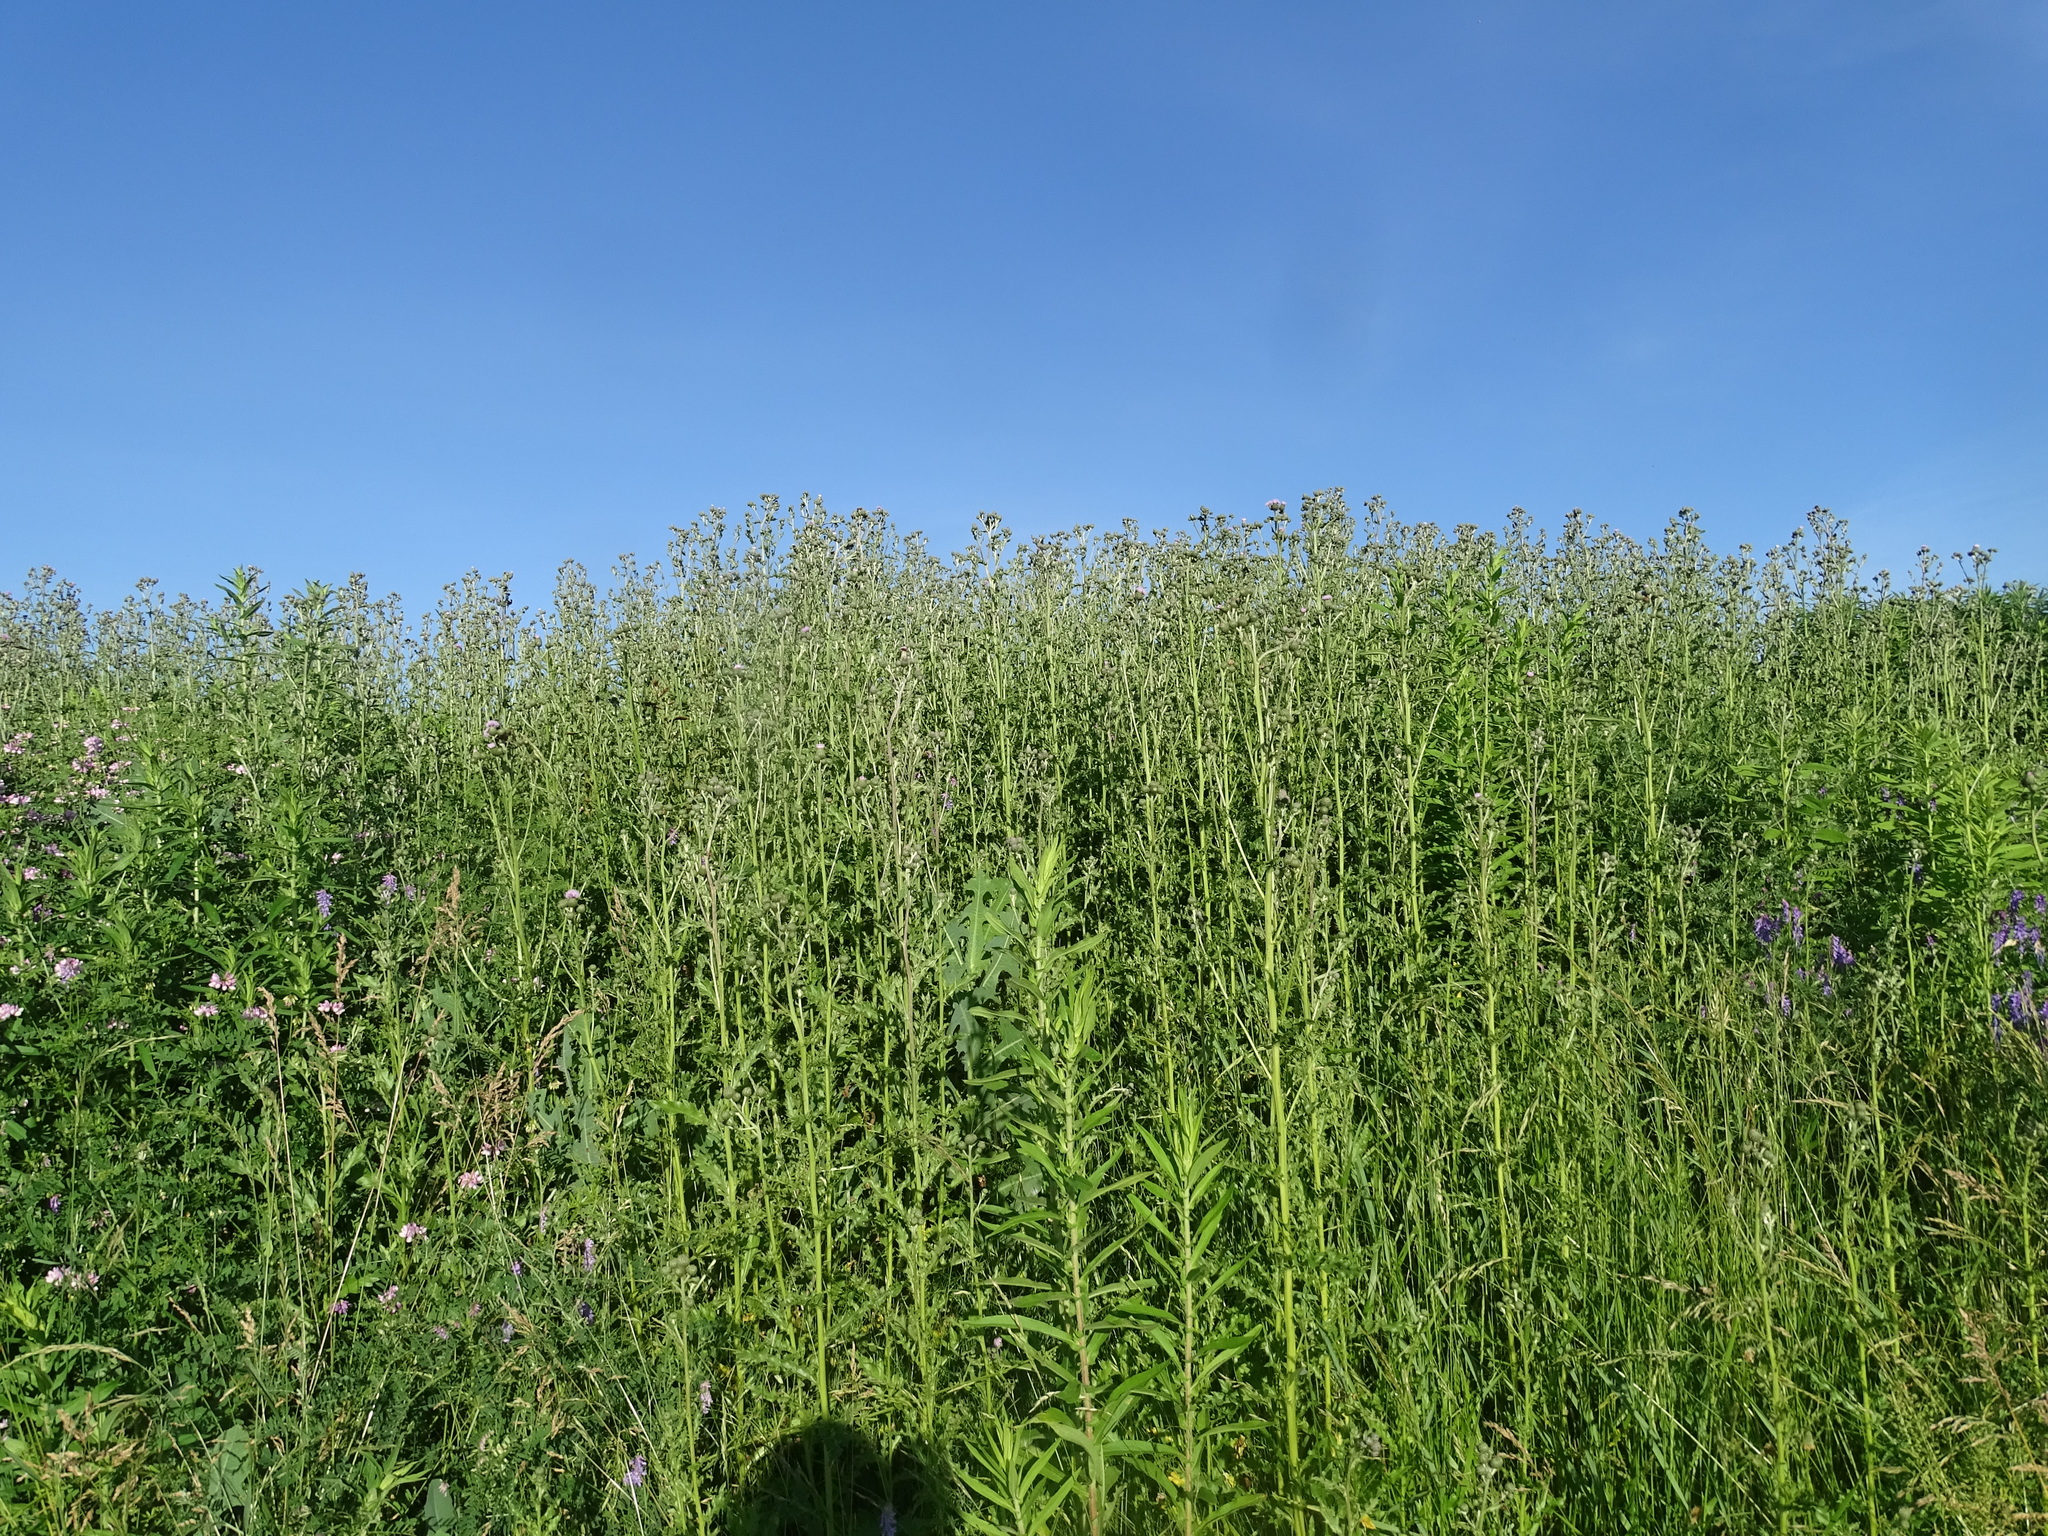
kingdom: Plantae
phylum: Tracheophyta
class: Magnoliopsida
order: Asterales
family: Asteraceae
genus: Cirsium
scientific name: Cirsium arvense
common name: Creeping thistle
